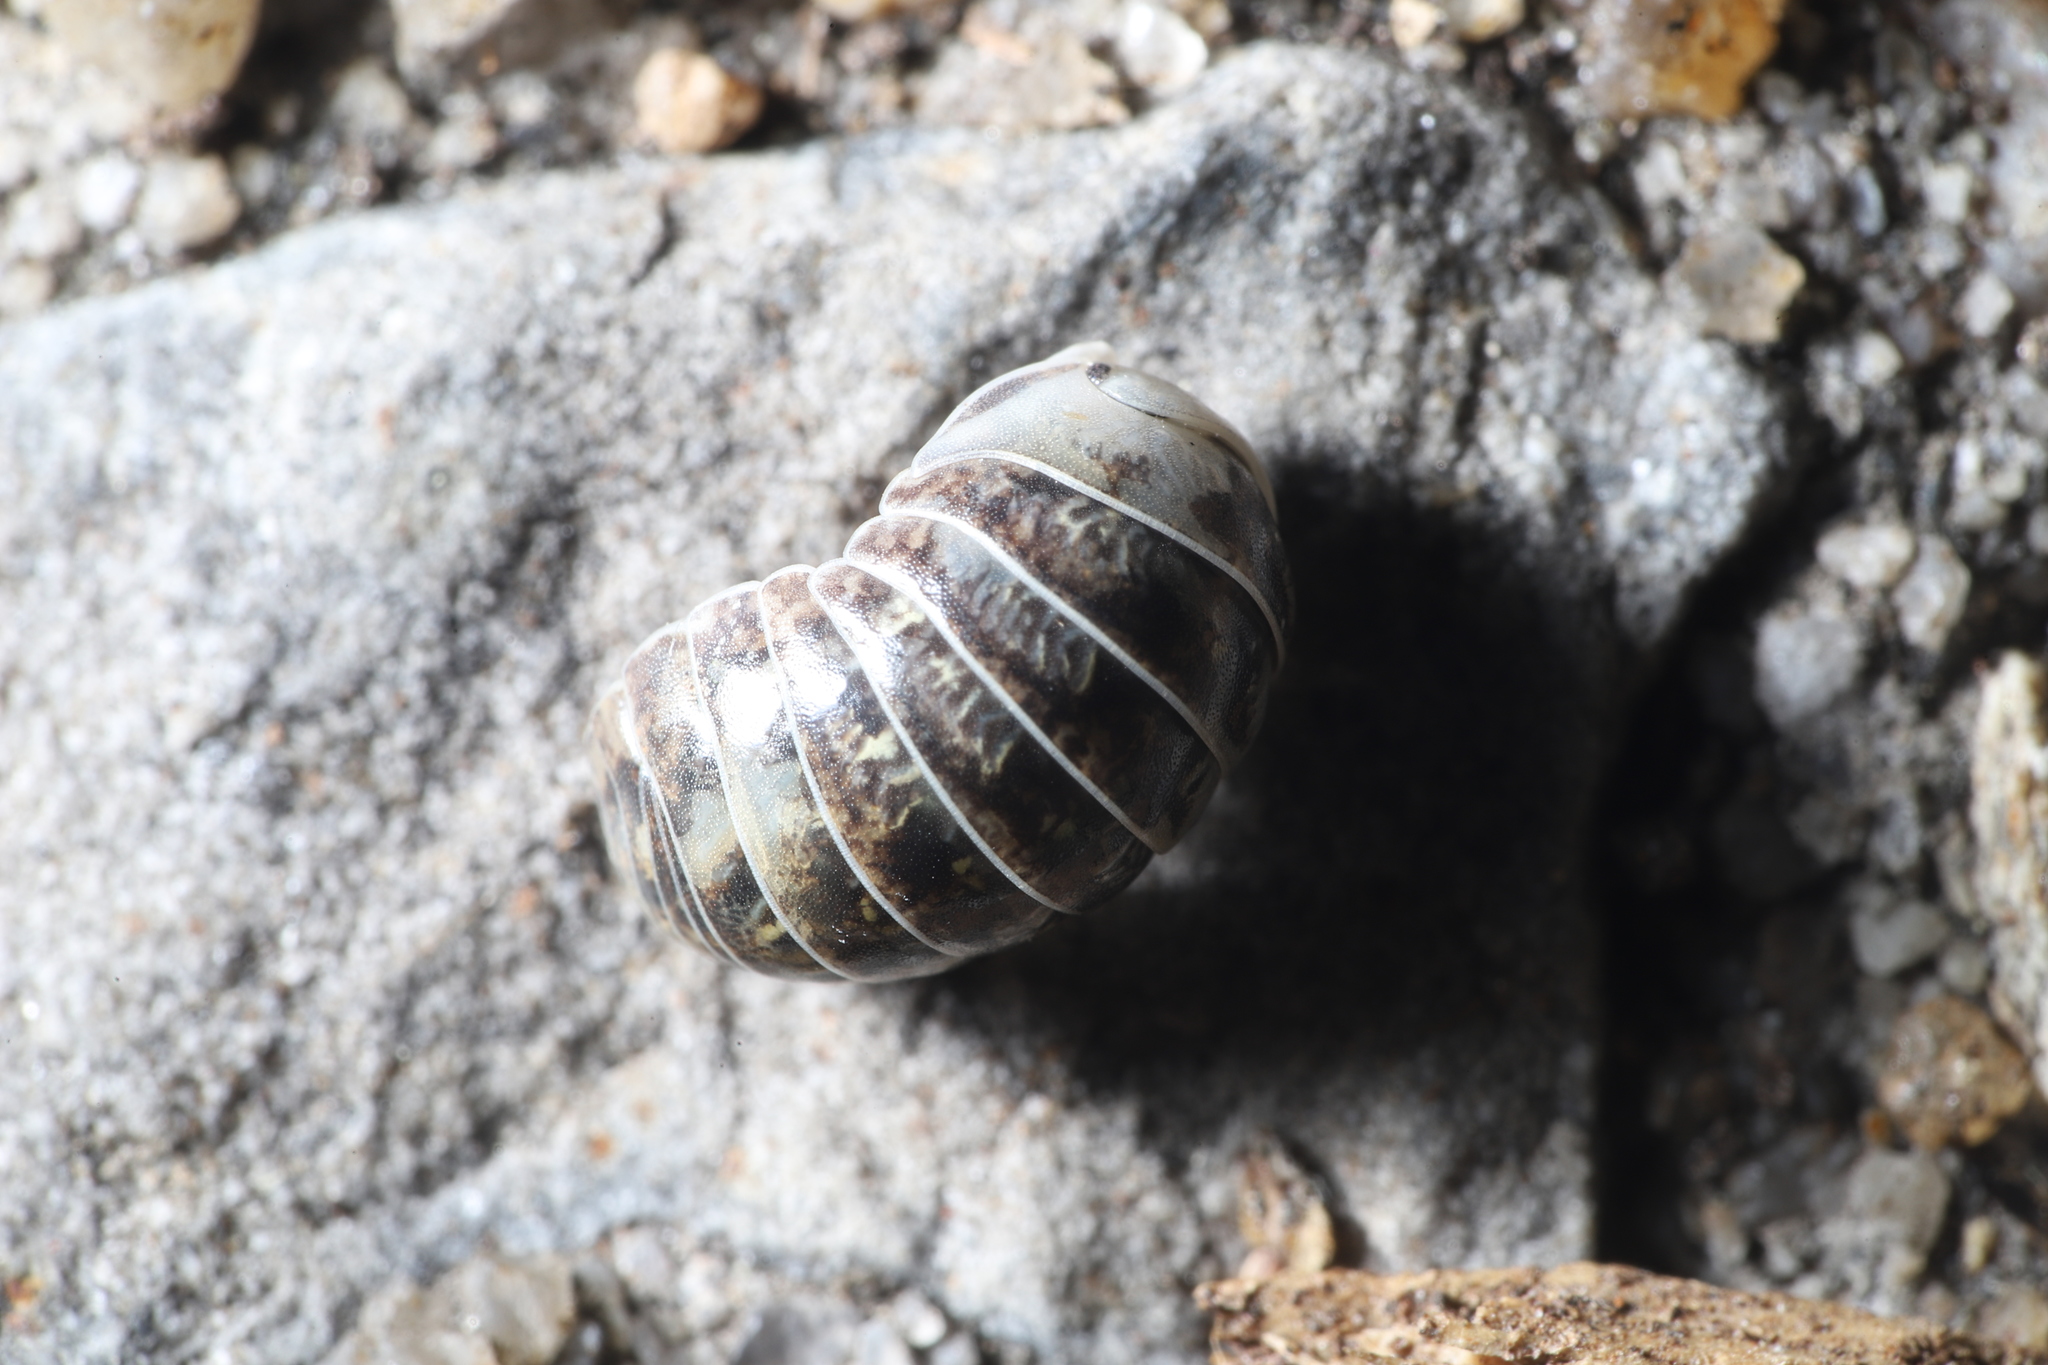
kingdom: Animalia
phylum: Arthropoda
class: Malacostraca
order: Isopoda
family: Armadillidiidae
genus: Armadillidium
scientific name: Armadillidium vulgare
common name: Common pill woodlouse
